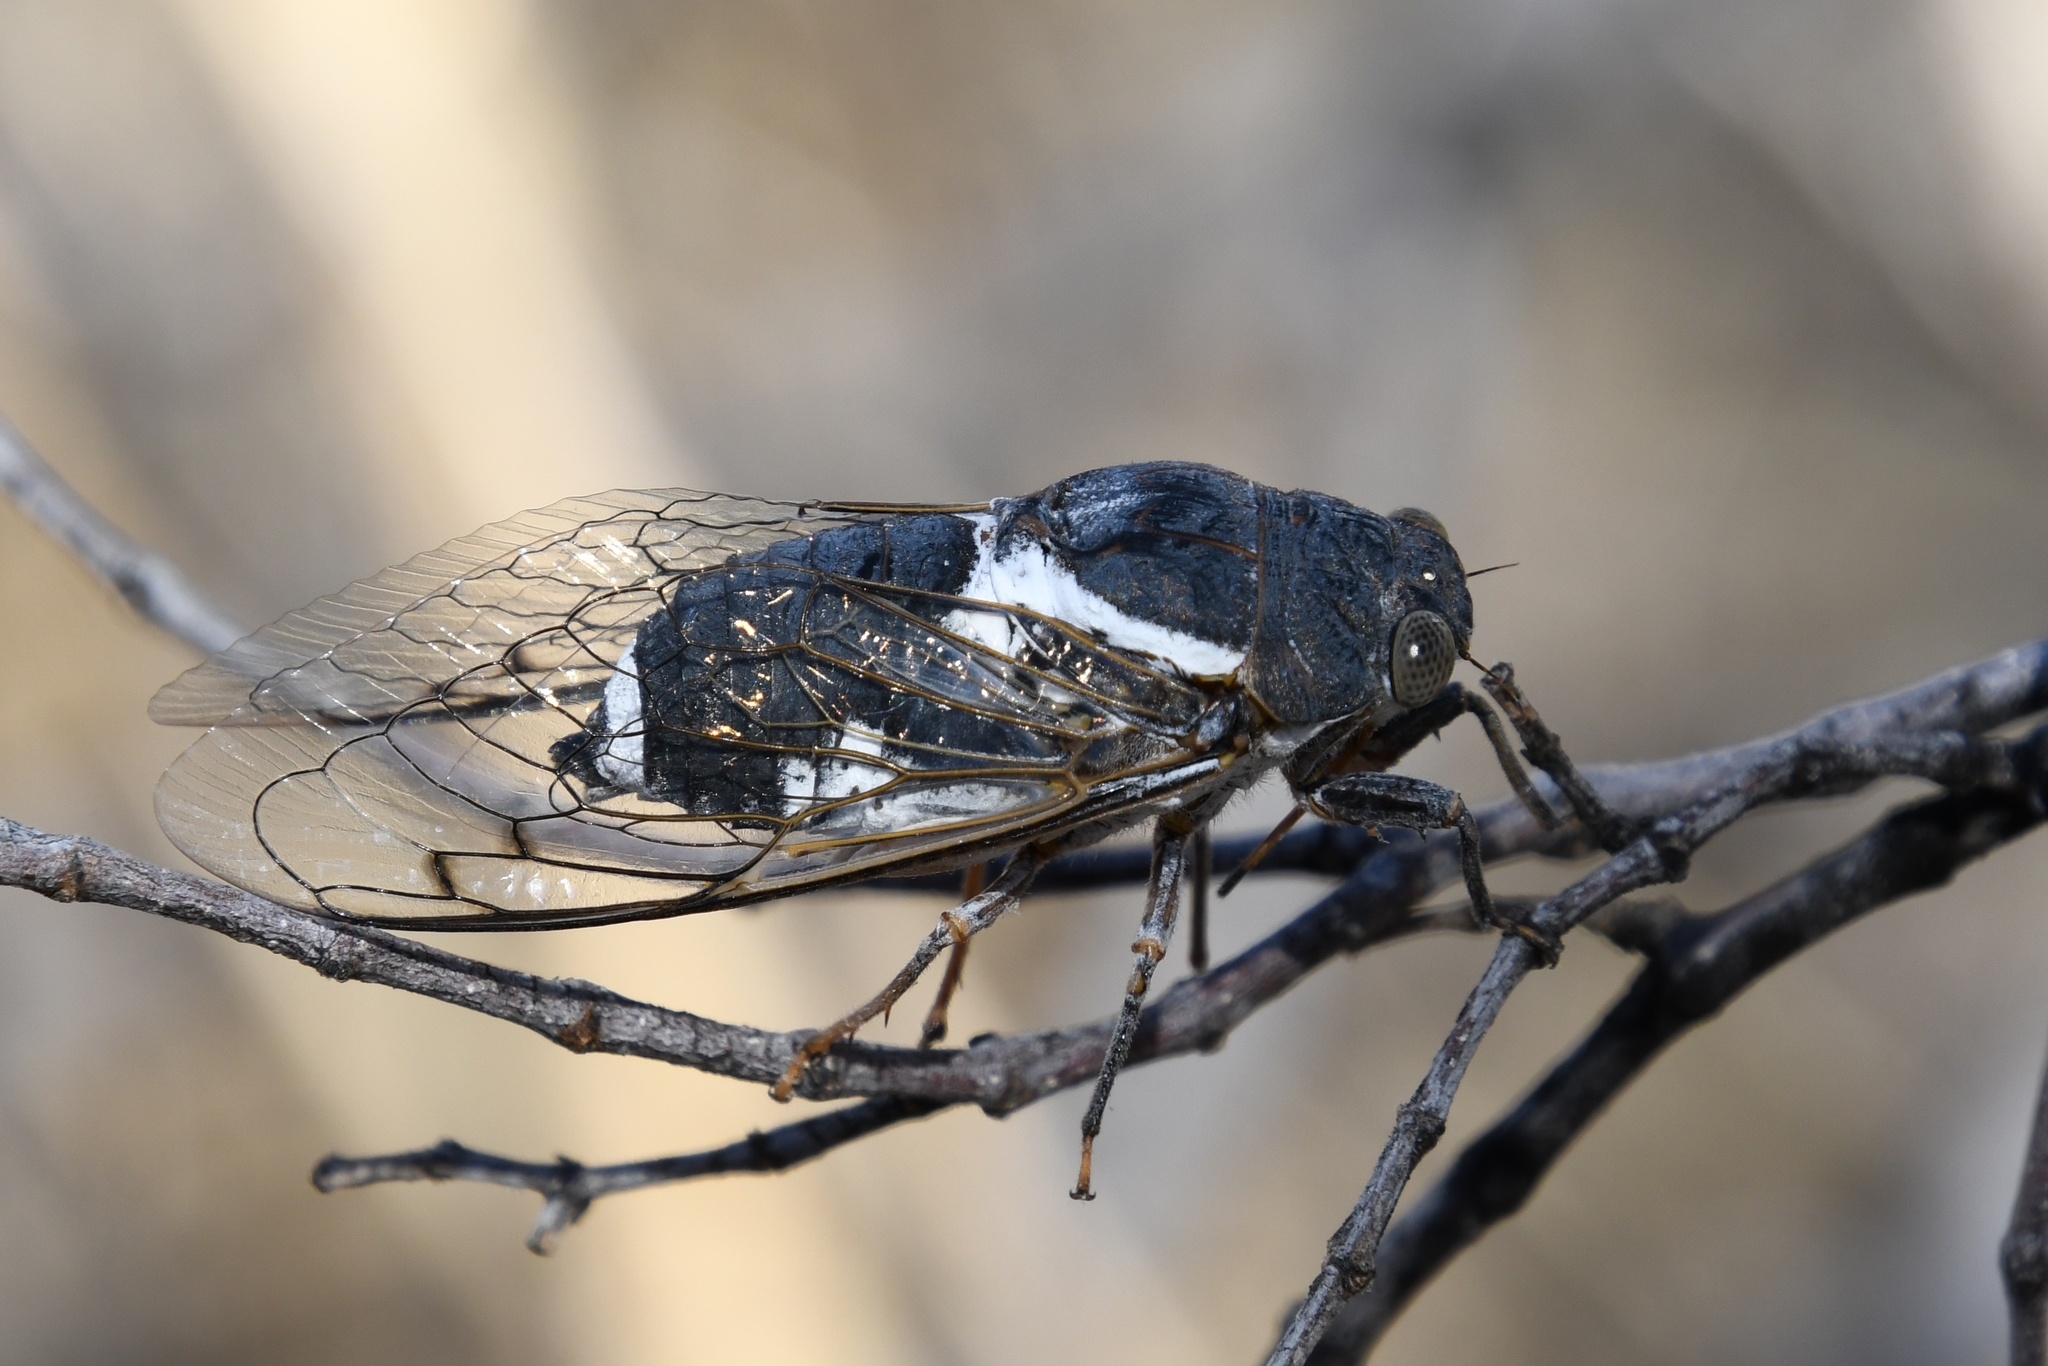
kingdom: Animalia
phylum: Arthropoda
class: Insecta
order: Hemiptera
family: Cicadidae
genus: Cacama
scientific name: Cacama moorei
